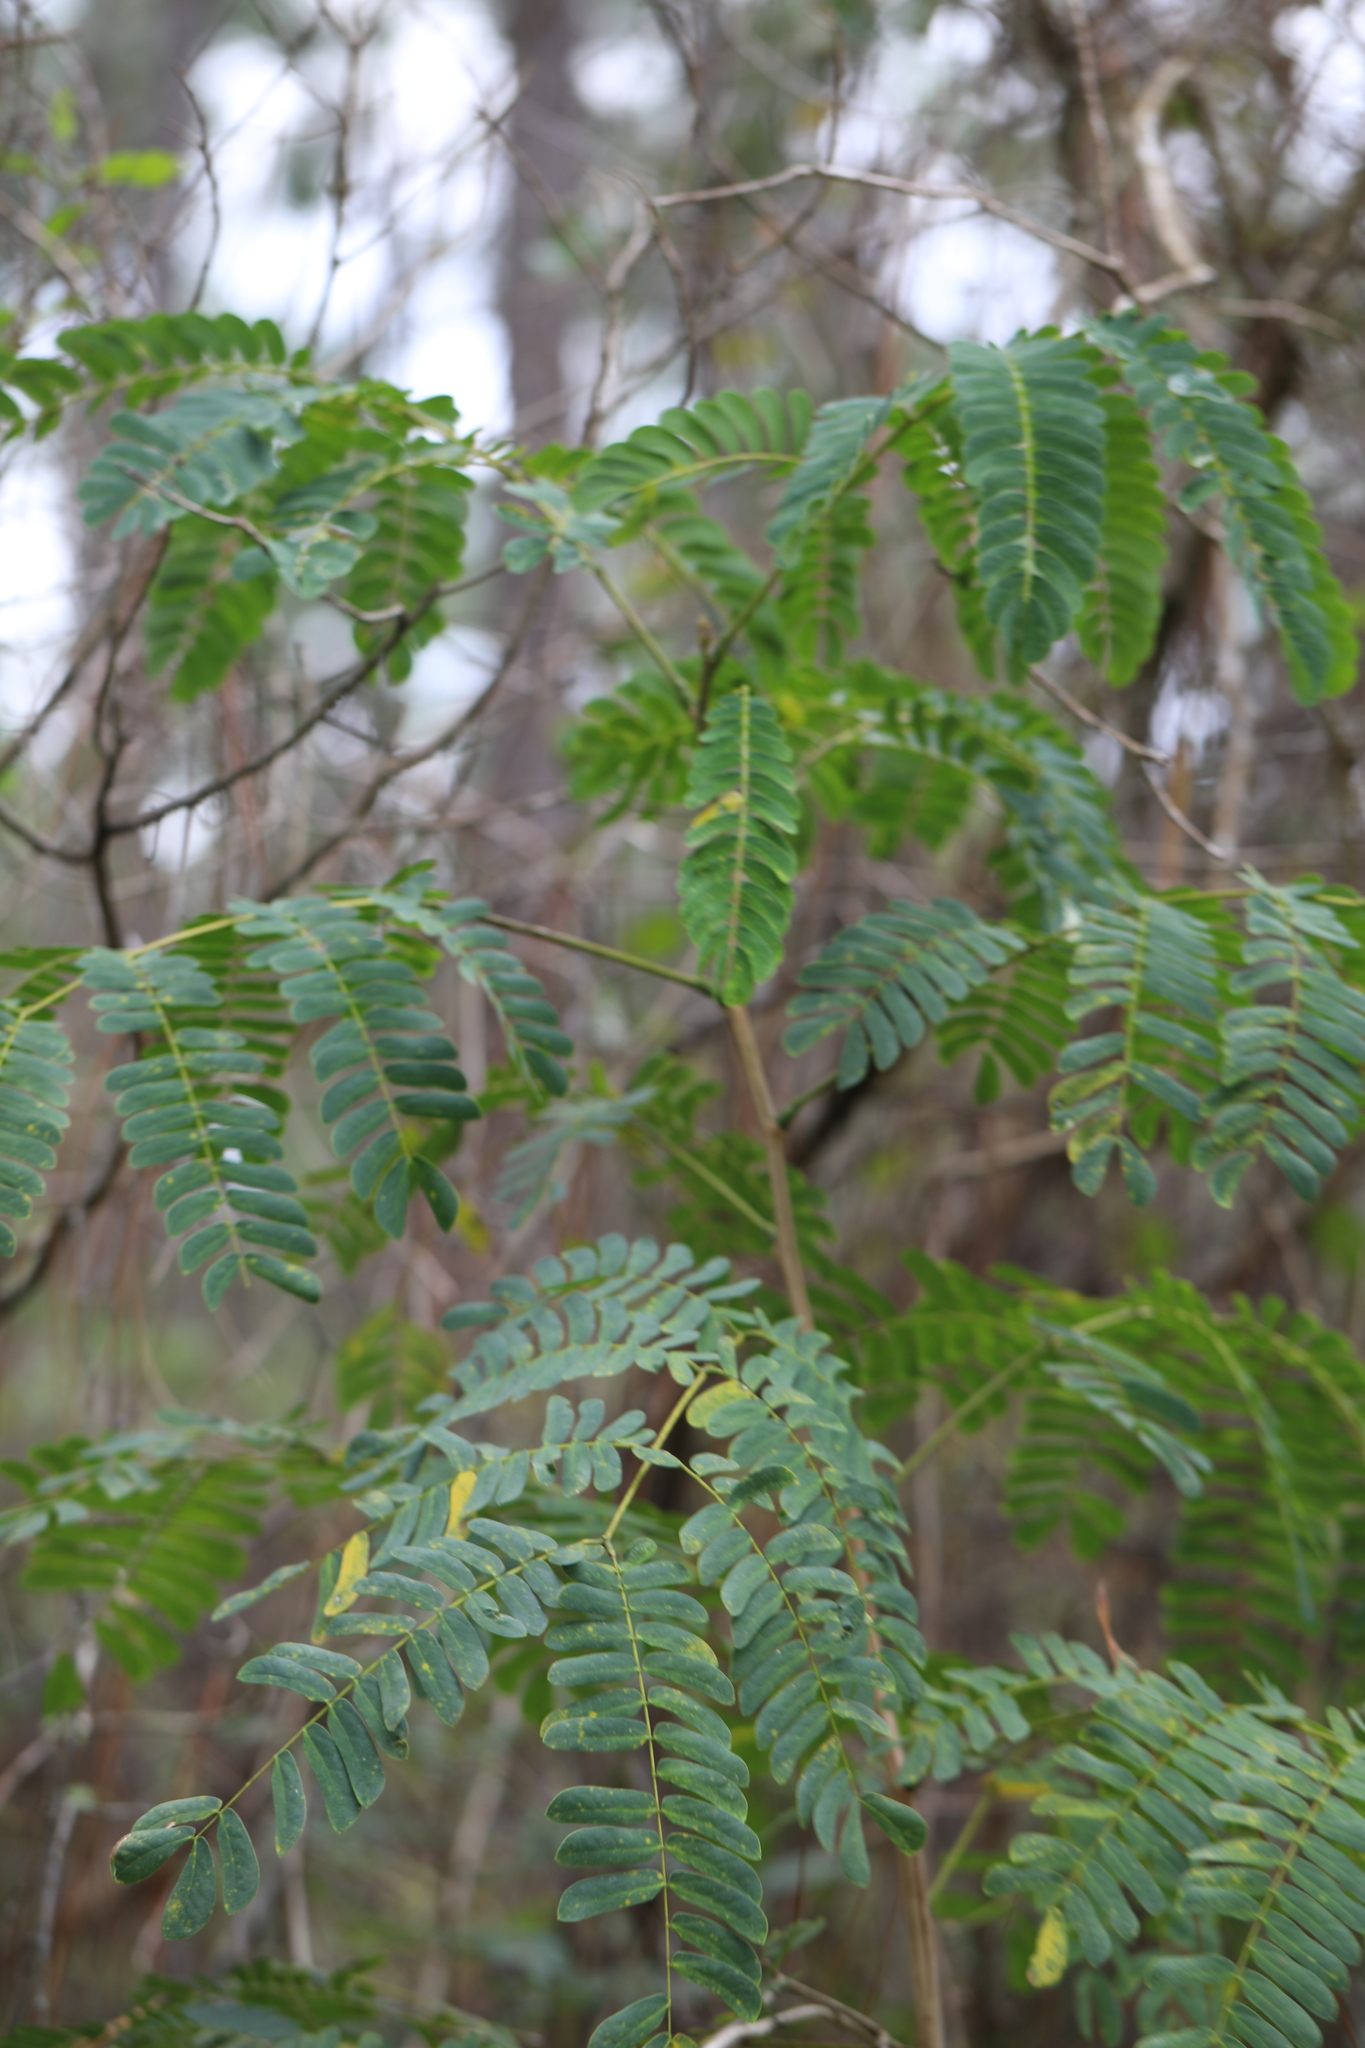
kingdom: Plantae
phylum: Tracheophyta
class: Magnoliopsida
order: Fabales
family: Fabaceae
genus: Lysiloma
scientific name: Lysiloma latisiliquum
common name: Wild tamarind
